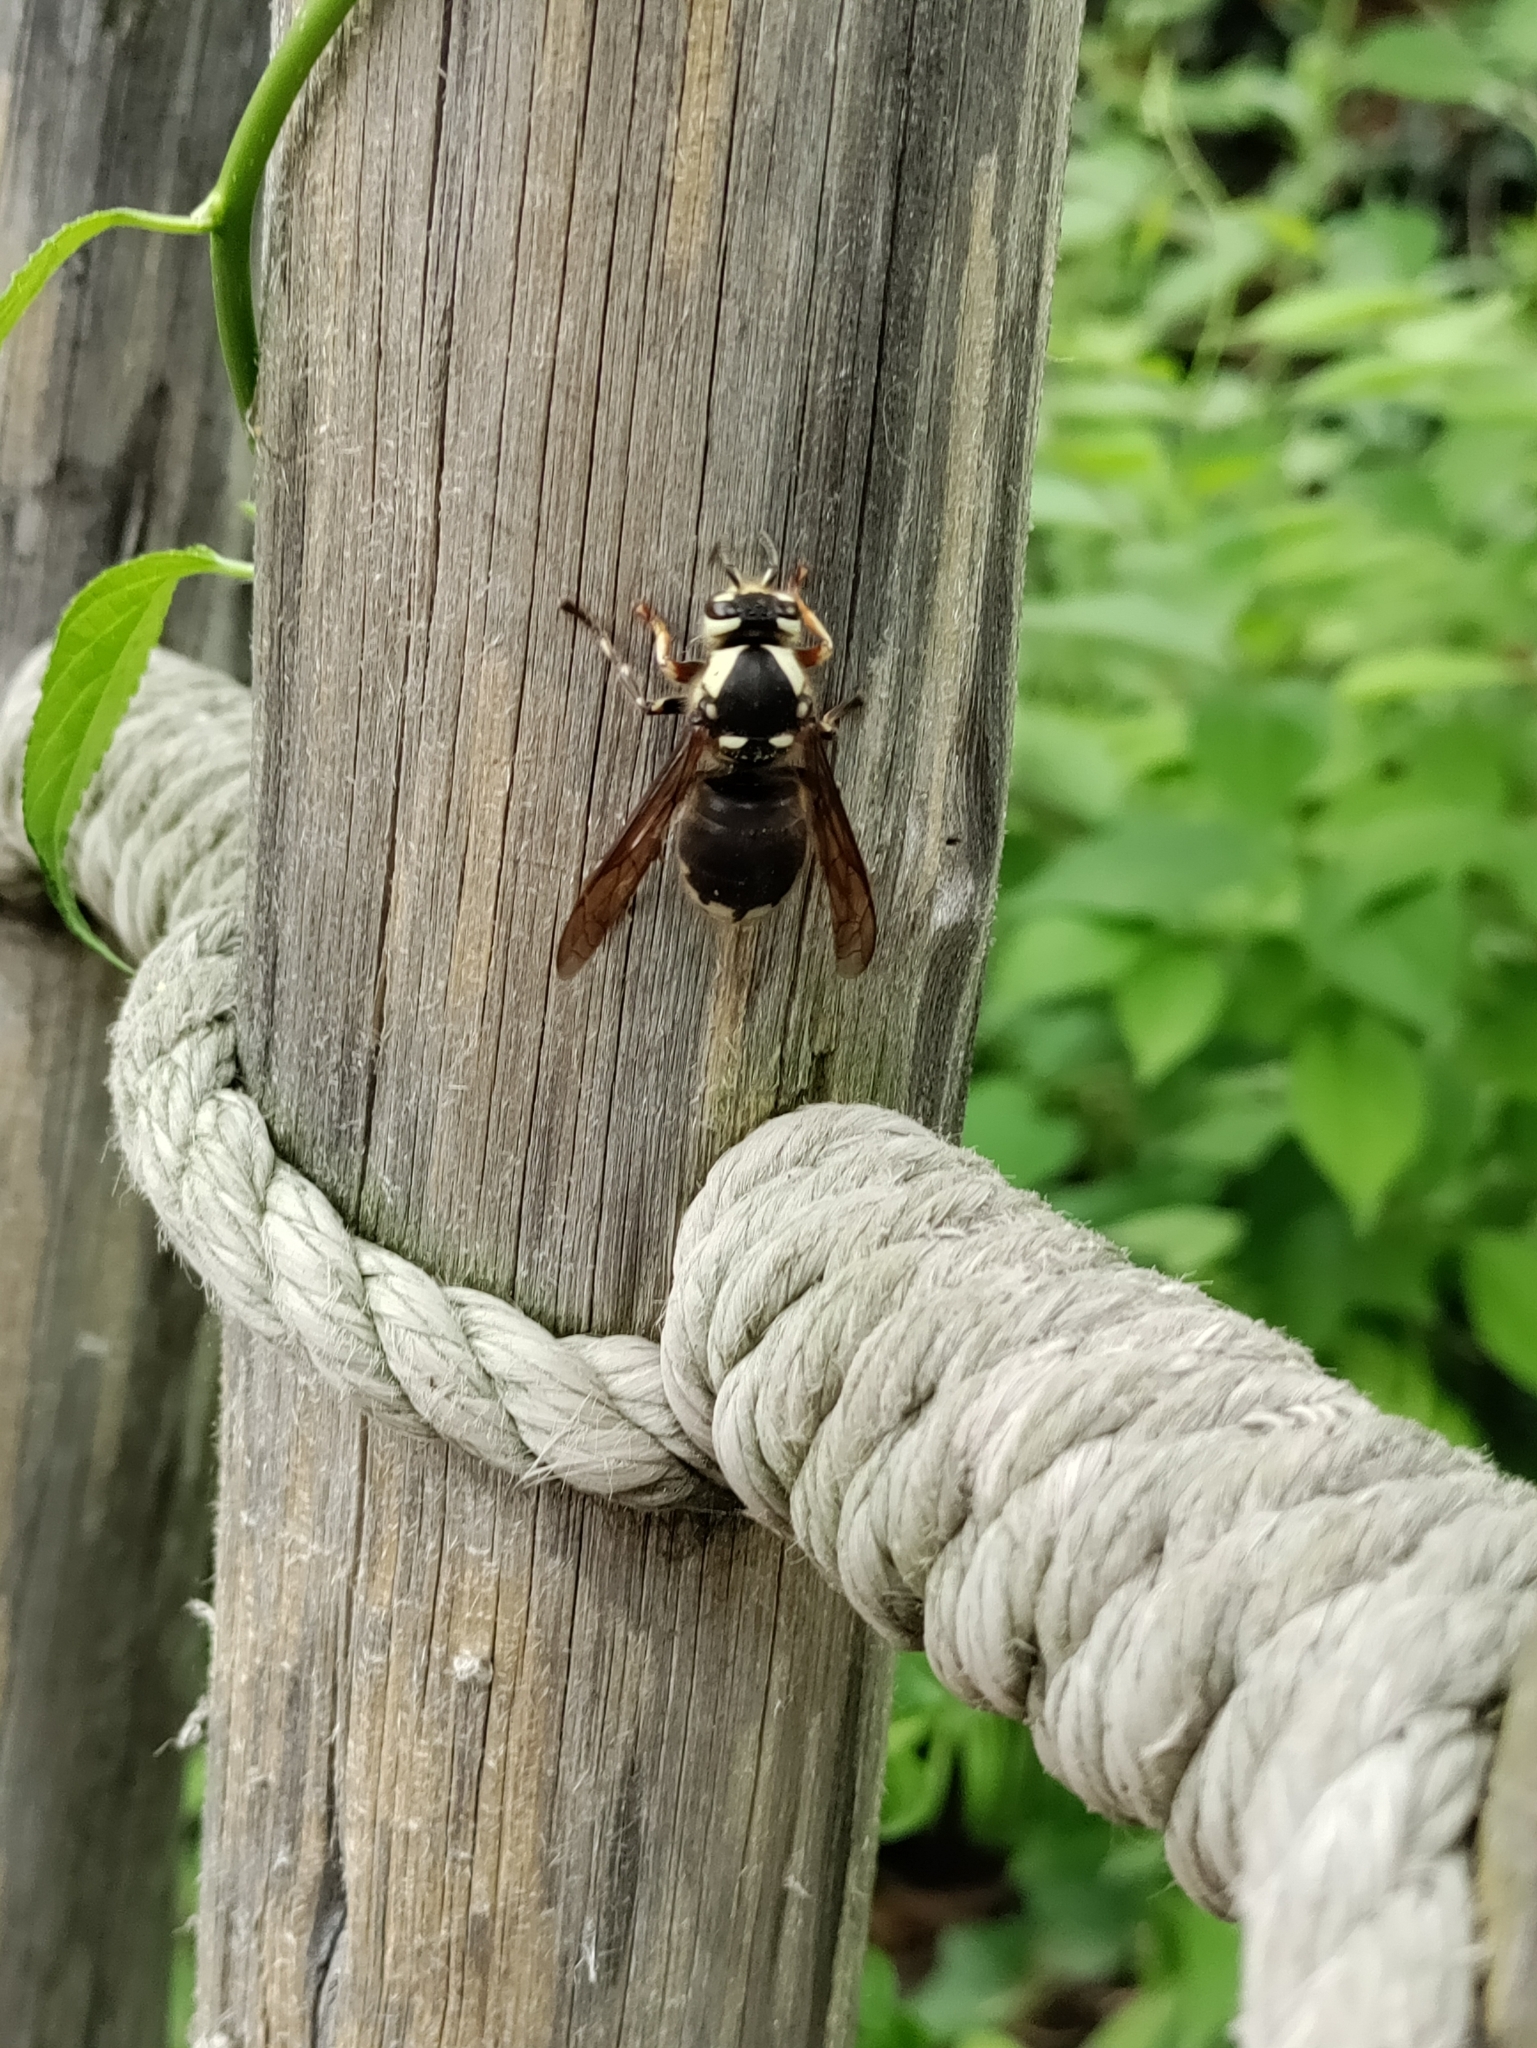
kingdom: Animalia
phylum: Arthropoda
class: Insecta
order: Hymenoptera
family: Vespidae
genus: Dolichovespula
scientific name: Dolichovespula maculata
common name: Bald-faced hornet
